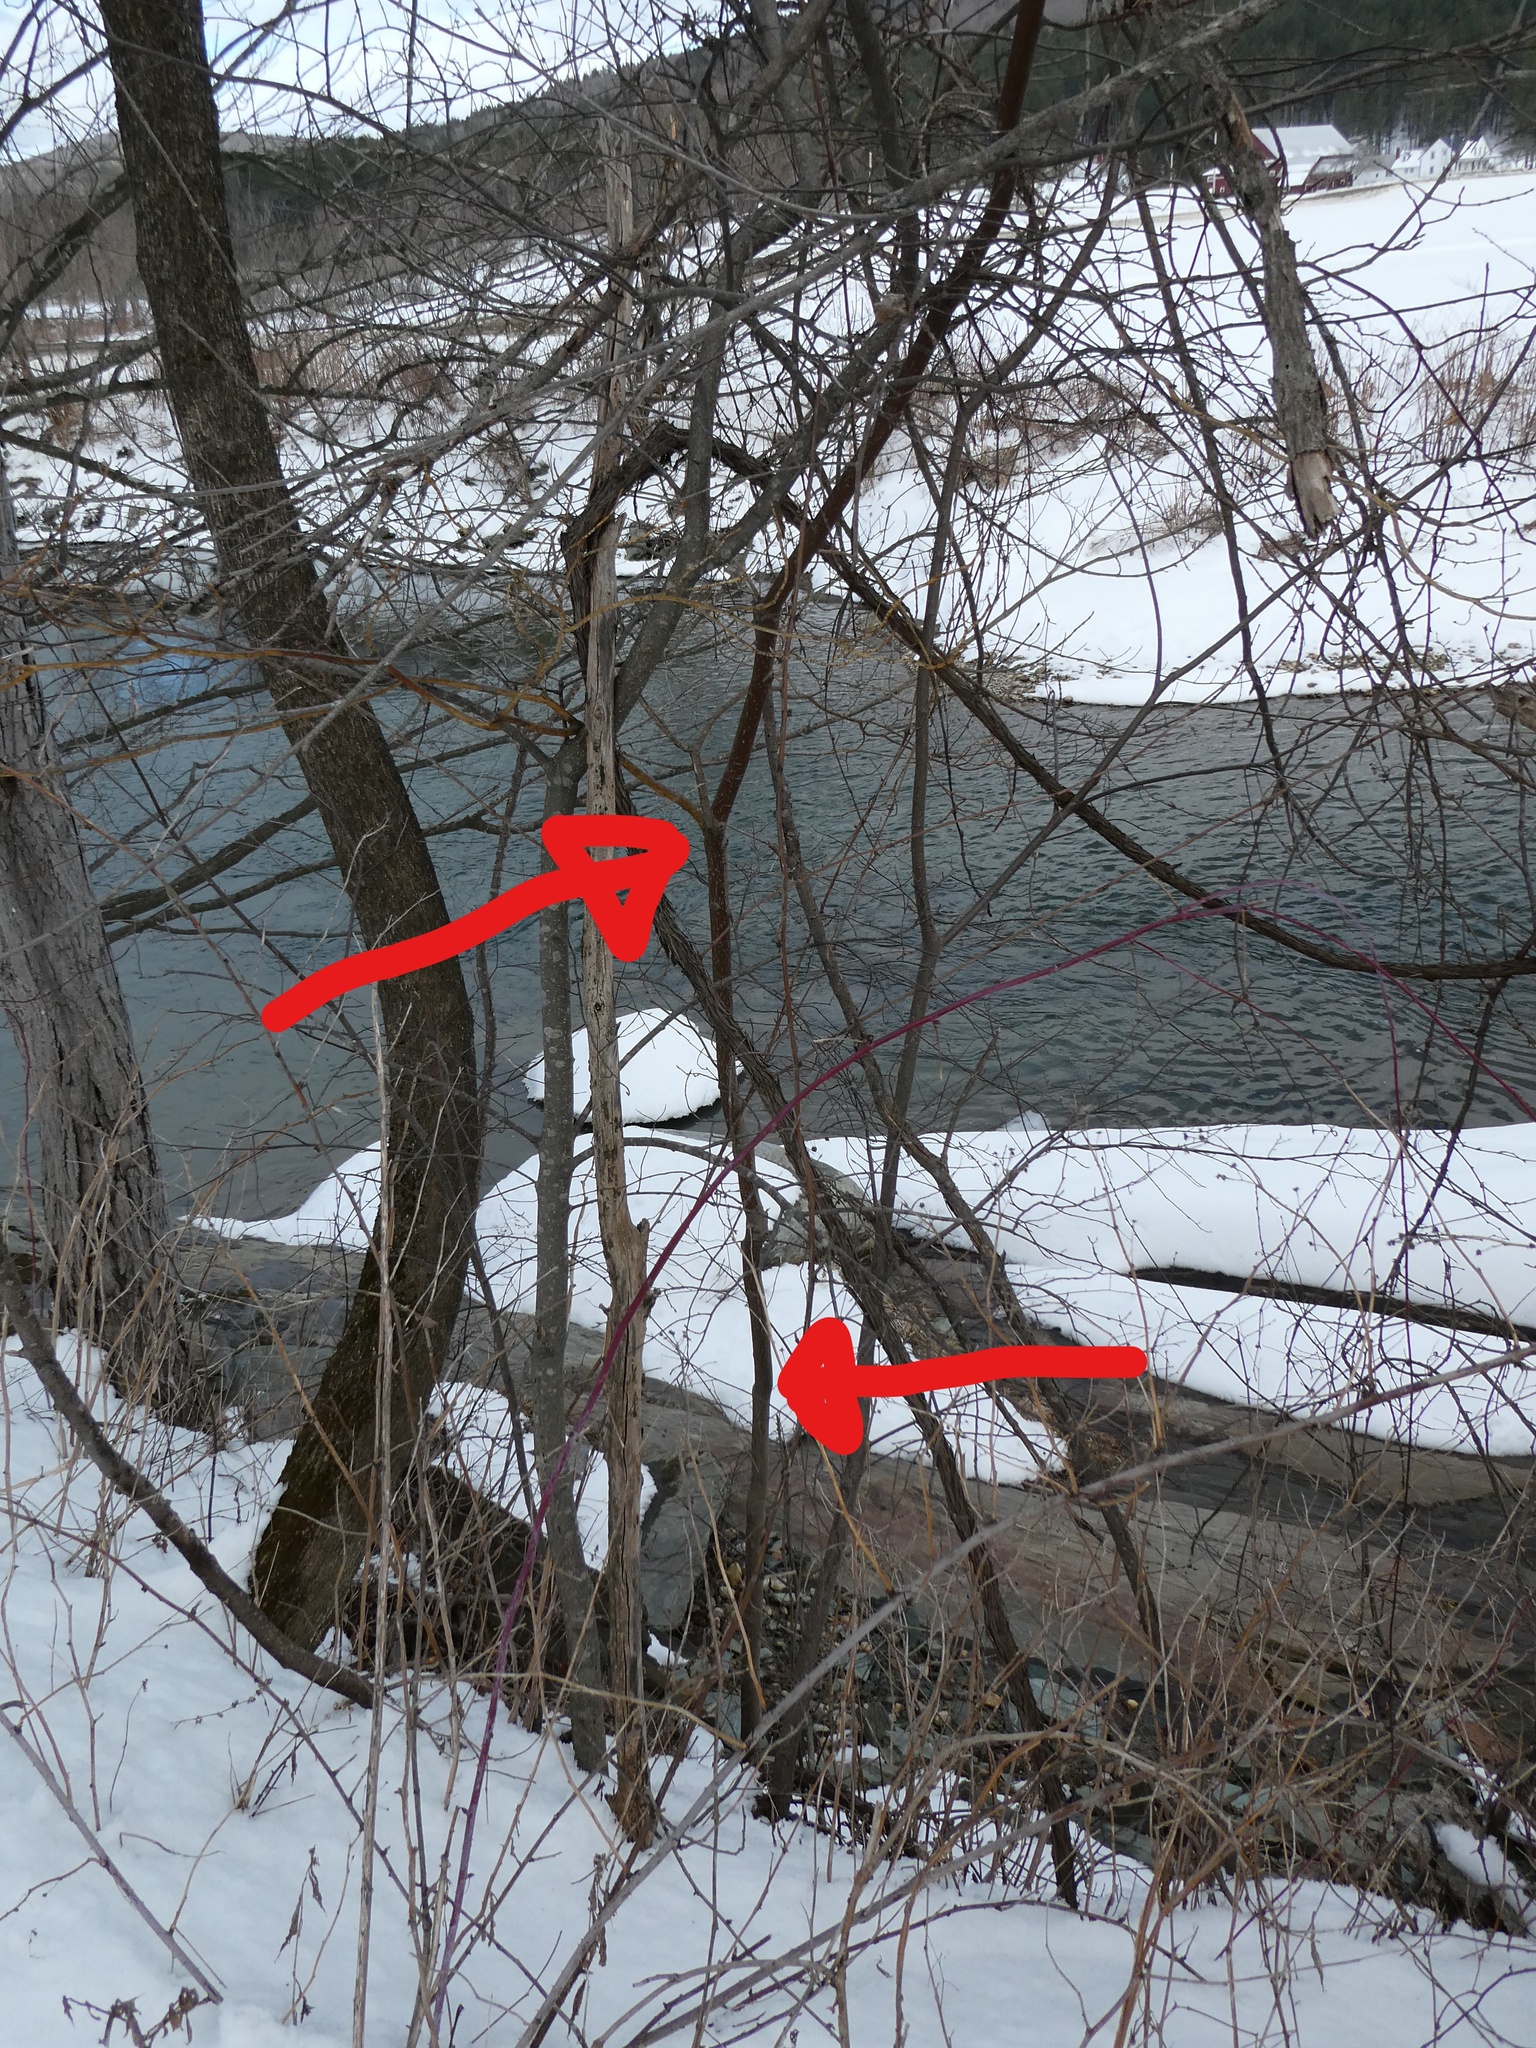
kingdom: Plantae
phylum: Tracheophyta
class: Magnoliopsida
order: Cornales
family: Cornaceae
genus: Cornus
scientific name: Cornus alternifolia
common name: Pagoda dogwood
